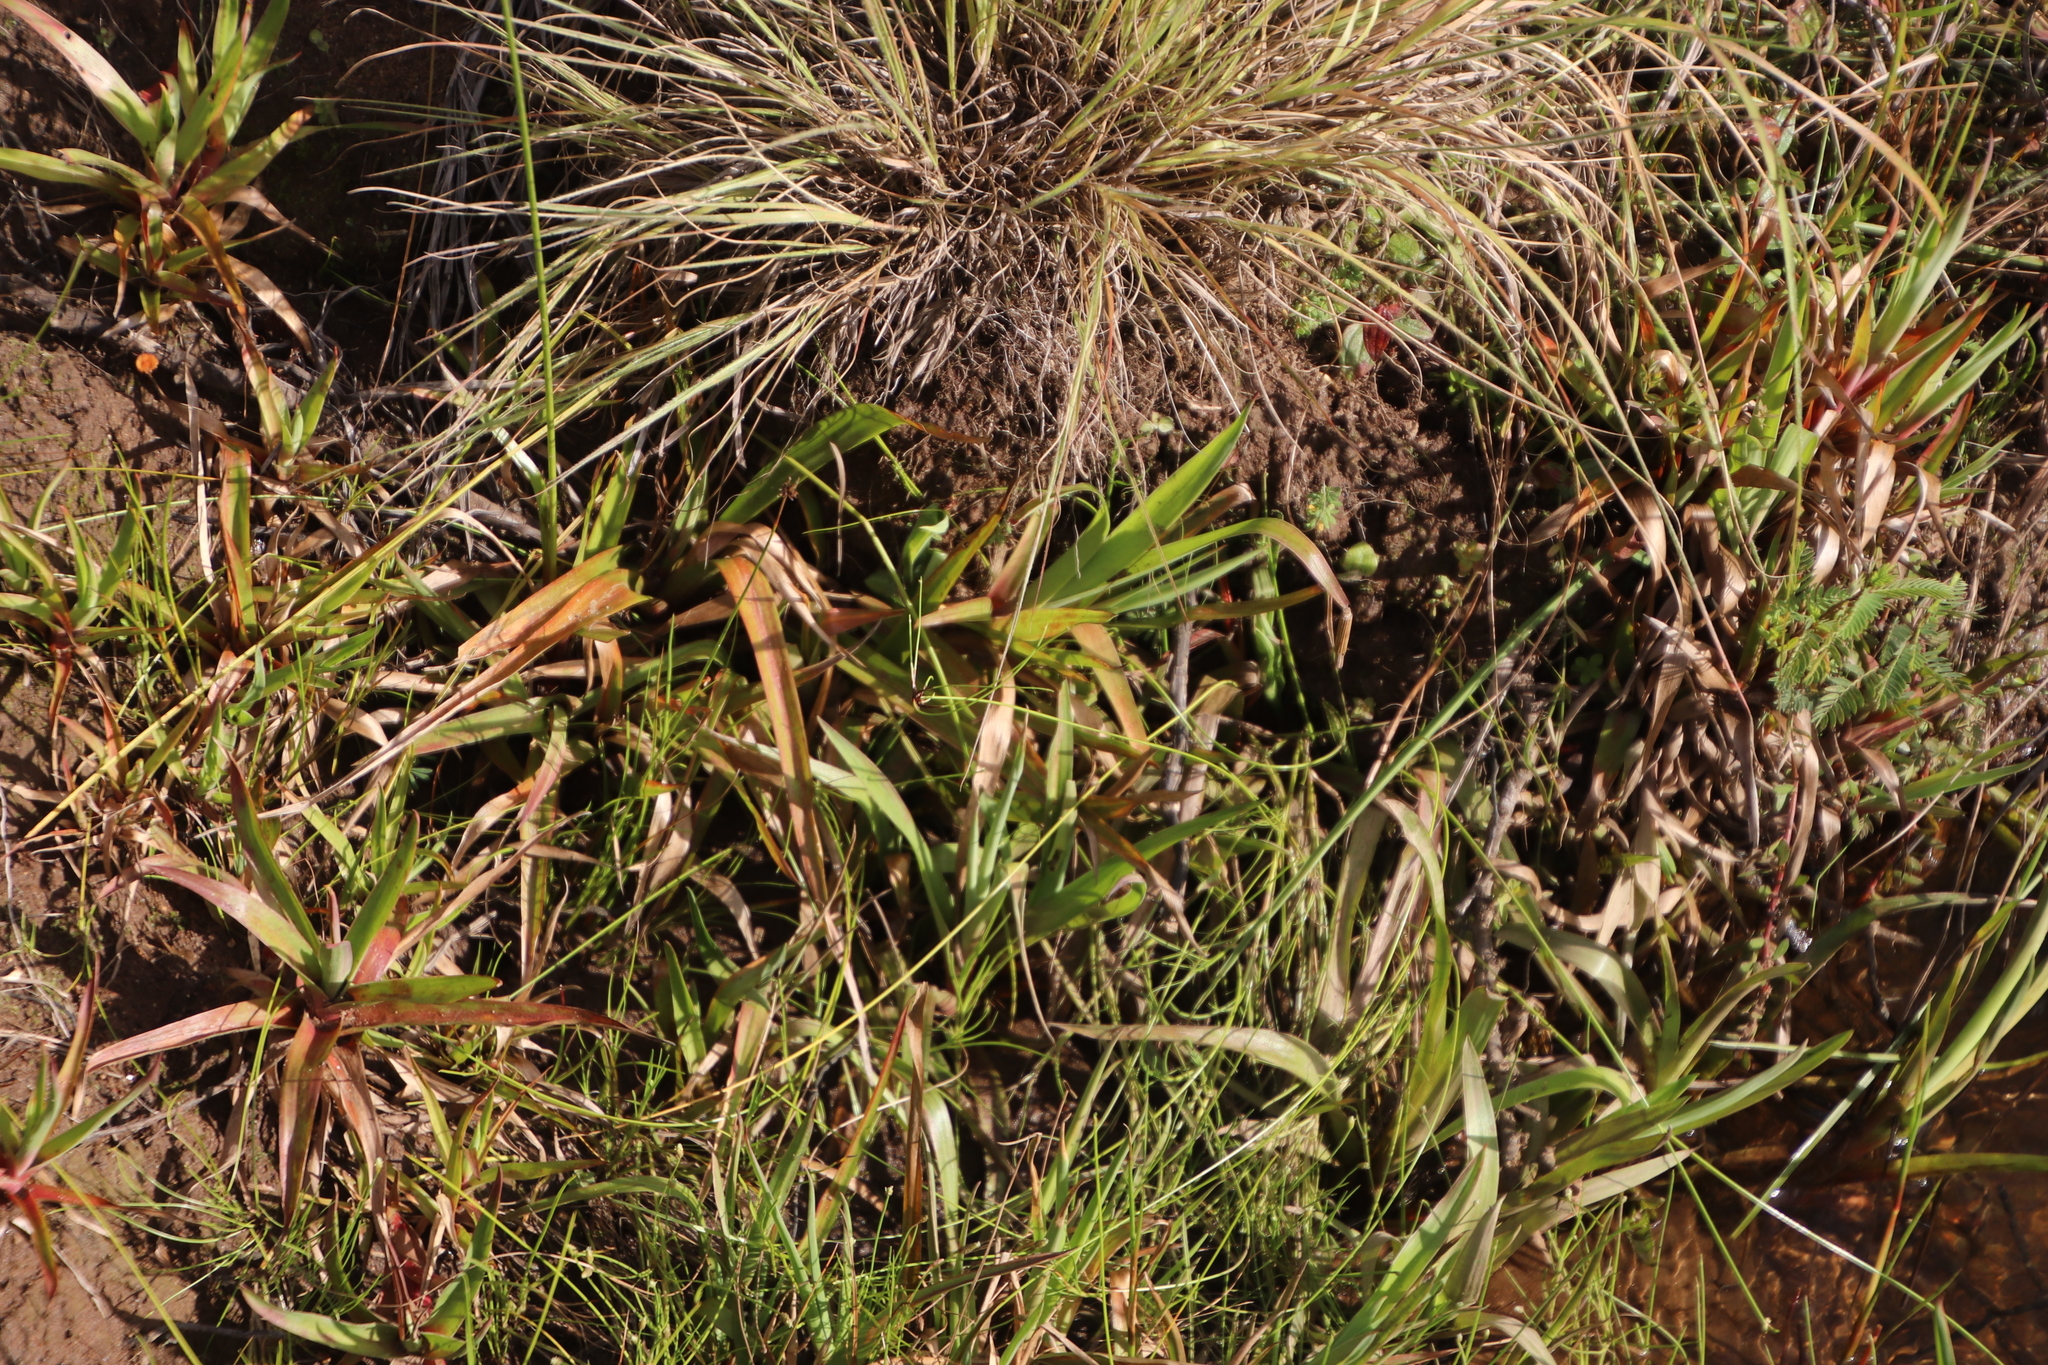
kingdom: Plantae
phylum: Tracheophyta
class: Liliopsida
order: Poales
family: Juncaceae
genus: Juncus
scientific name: Juncus lomatophyllus
